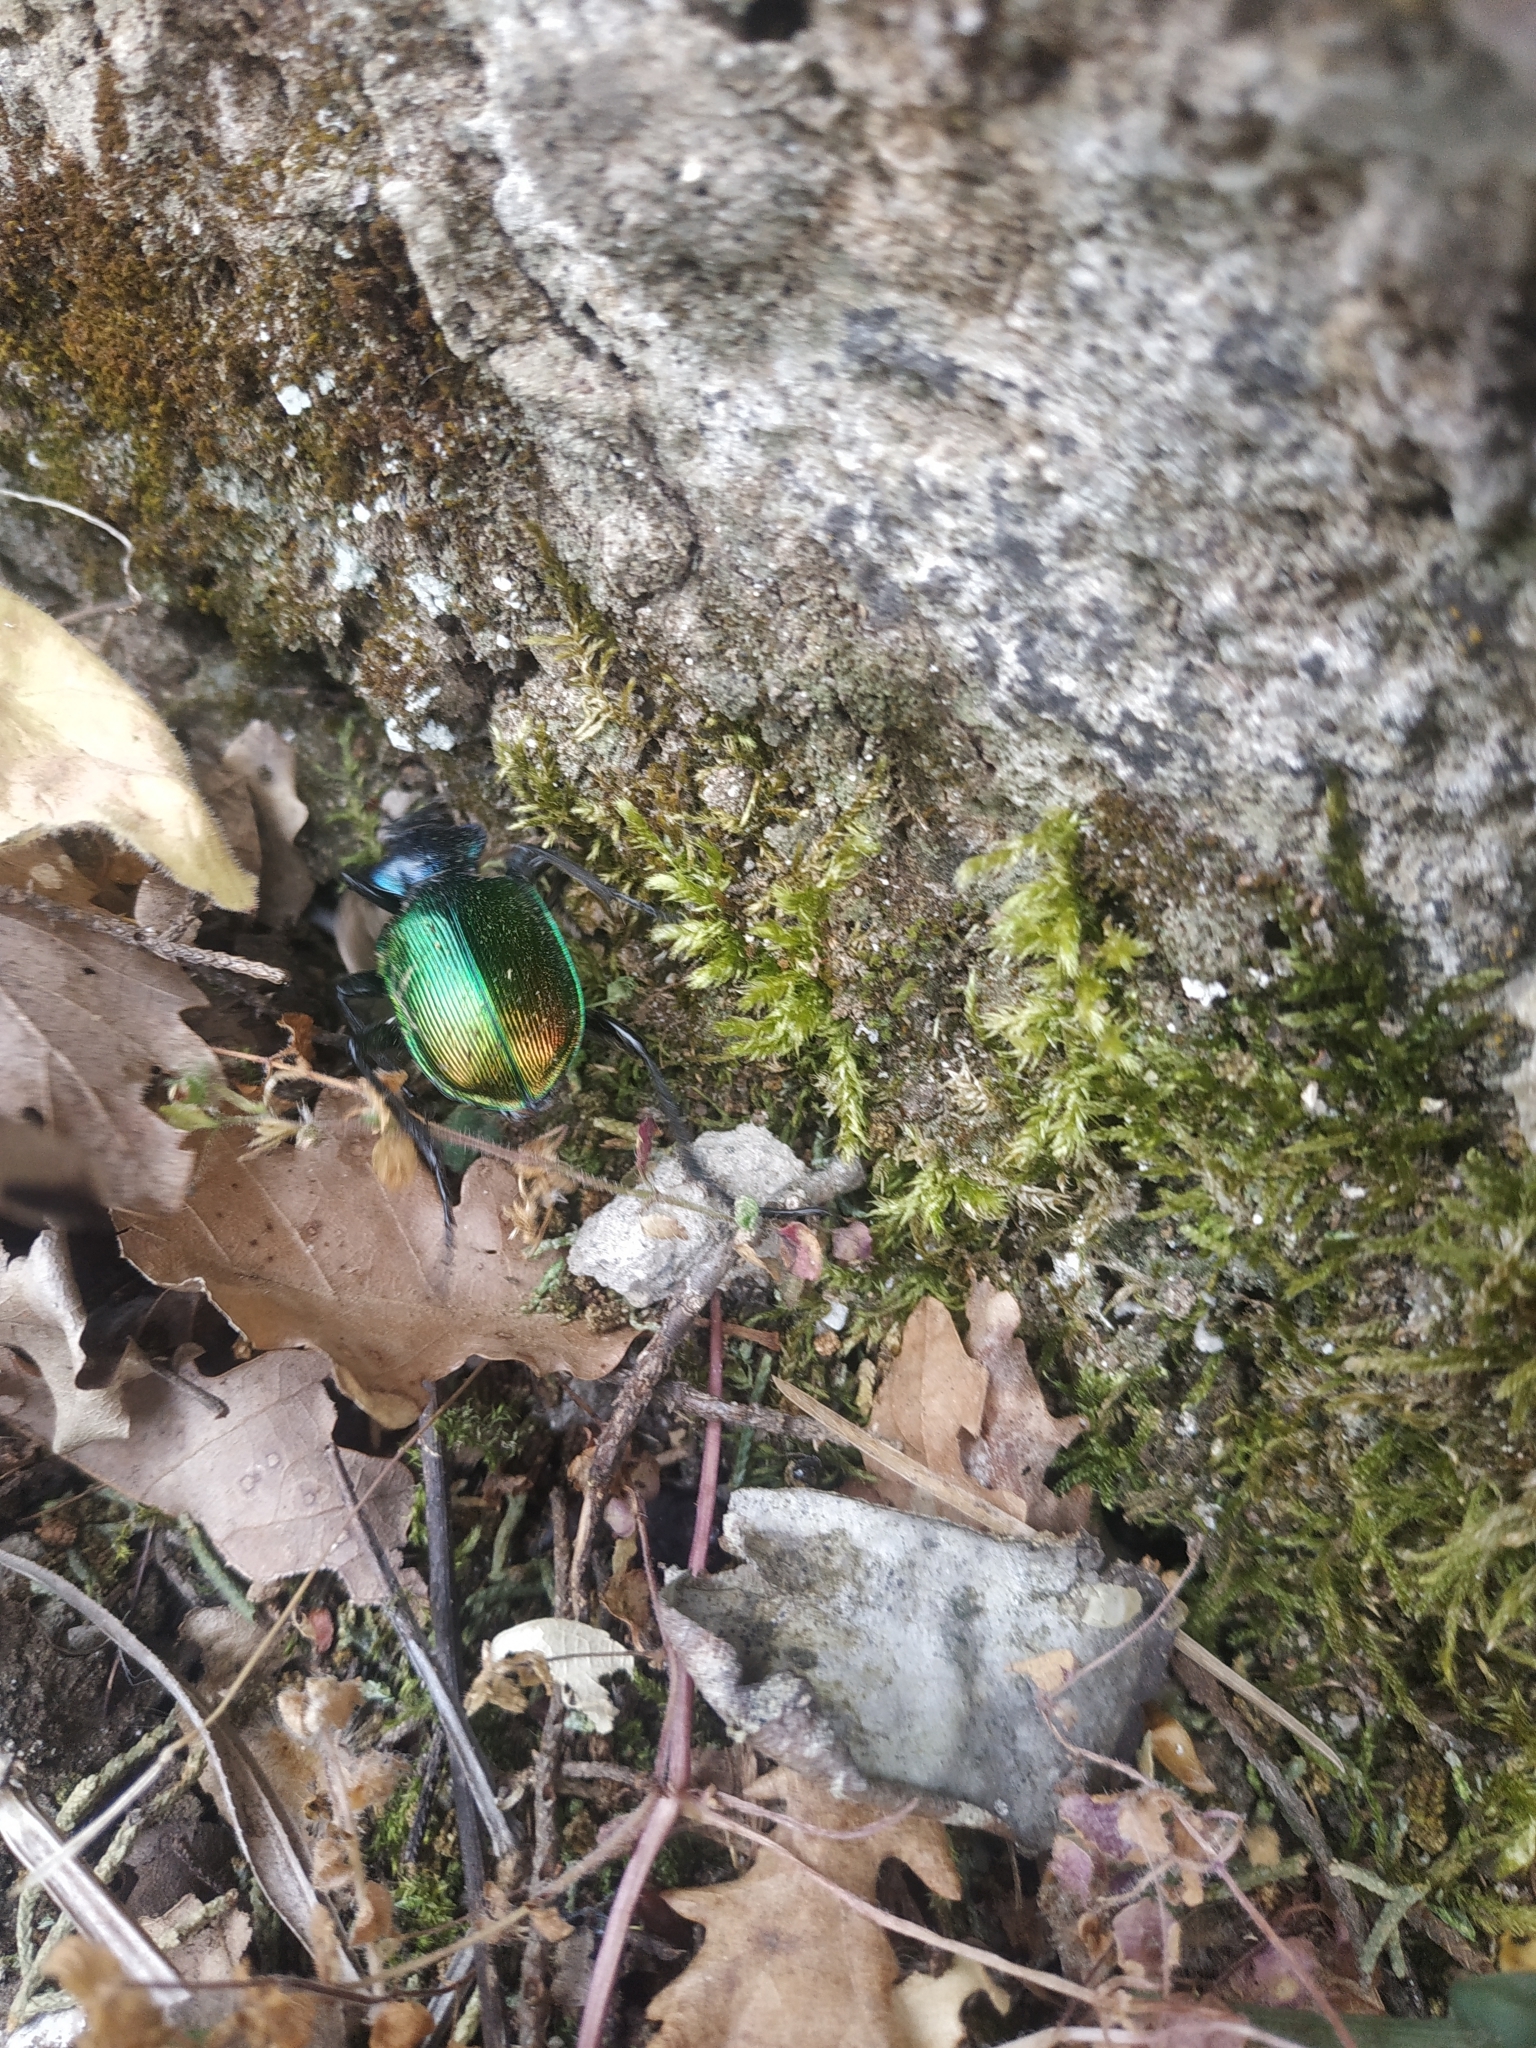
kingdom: Animalia
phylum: Arthropoda
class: Insecta
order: Coleoptera
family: Carabidae
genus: Calosoma
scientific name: Calosoma sycophanta
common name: Forest caterpillar hunter
